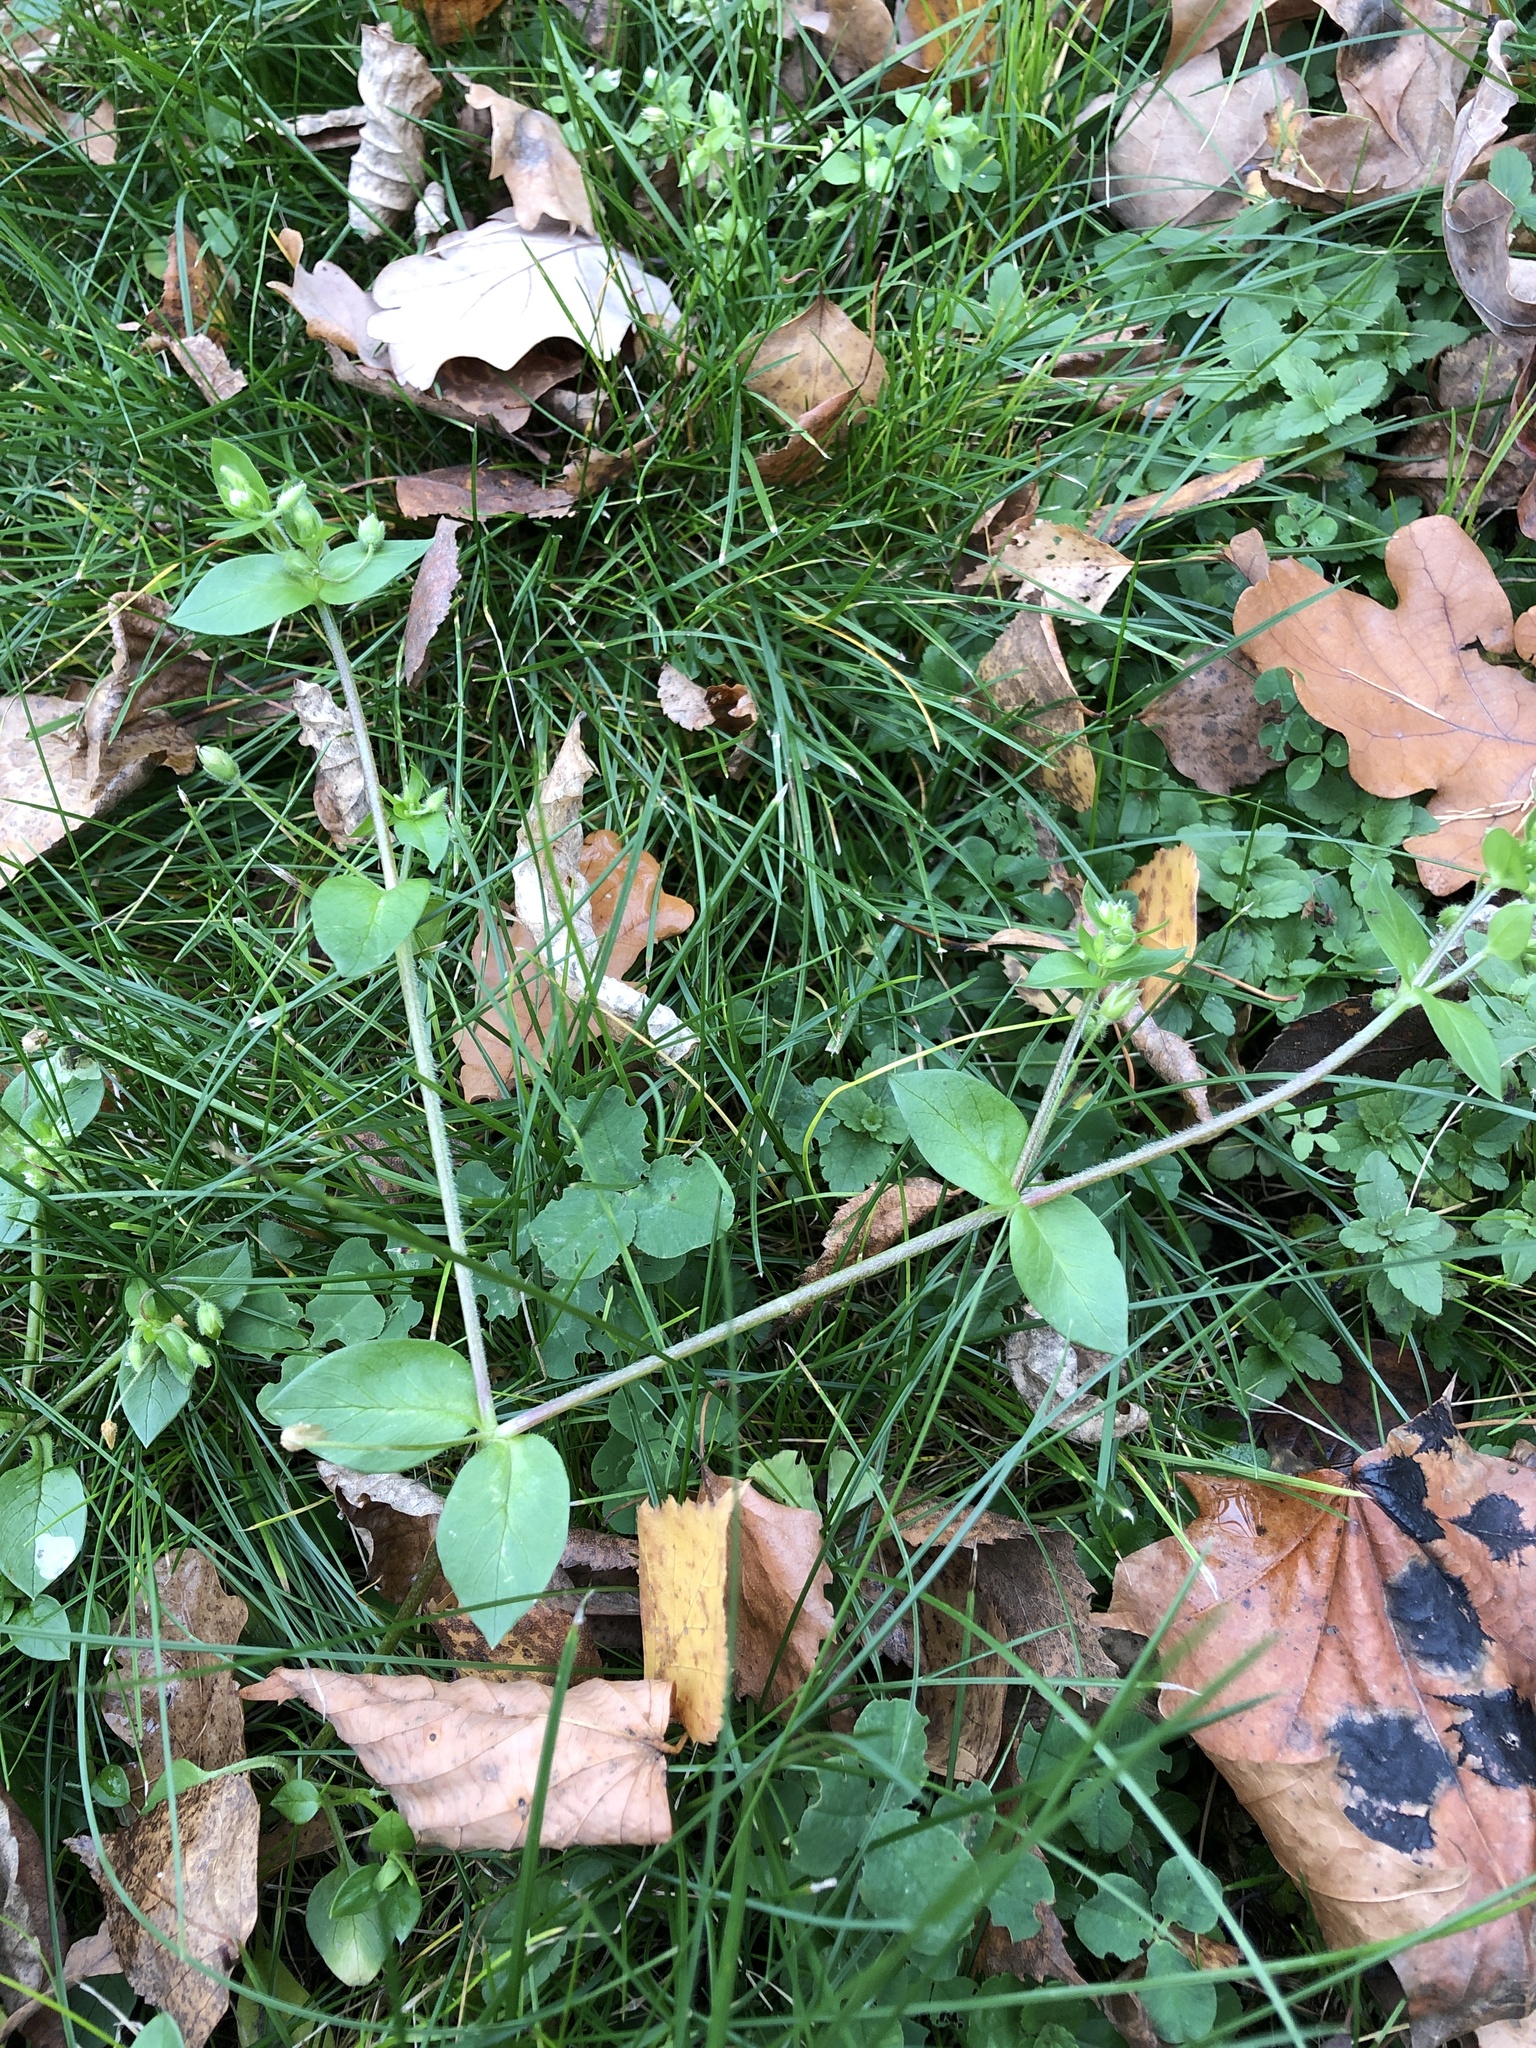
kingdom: Plantae
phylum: Tracheophyta
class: Magnoliopsida
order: Caryophyllales
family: Caryophyllaceae
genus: Stellaria
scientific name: Stellaria media
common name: Common chickweed
